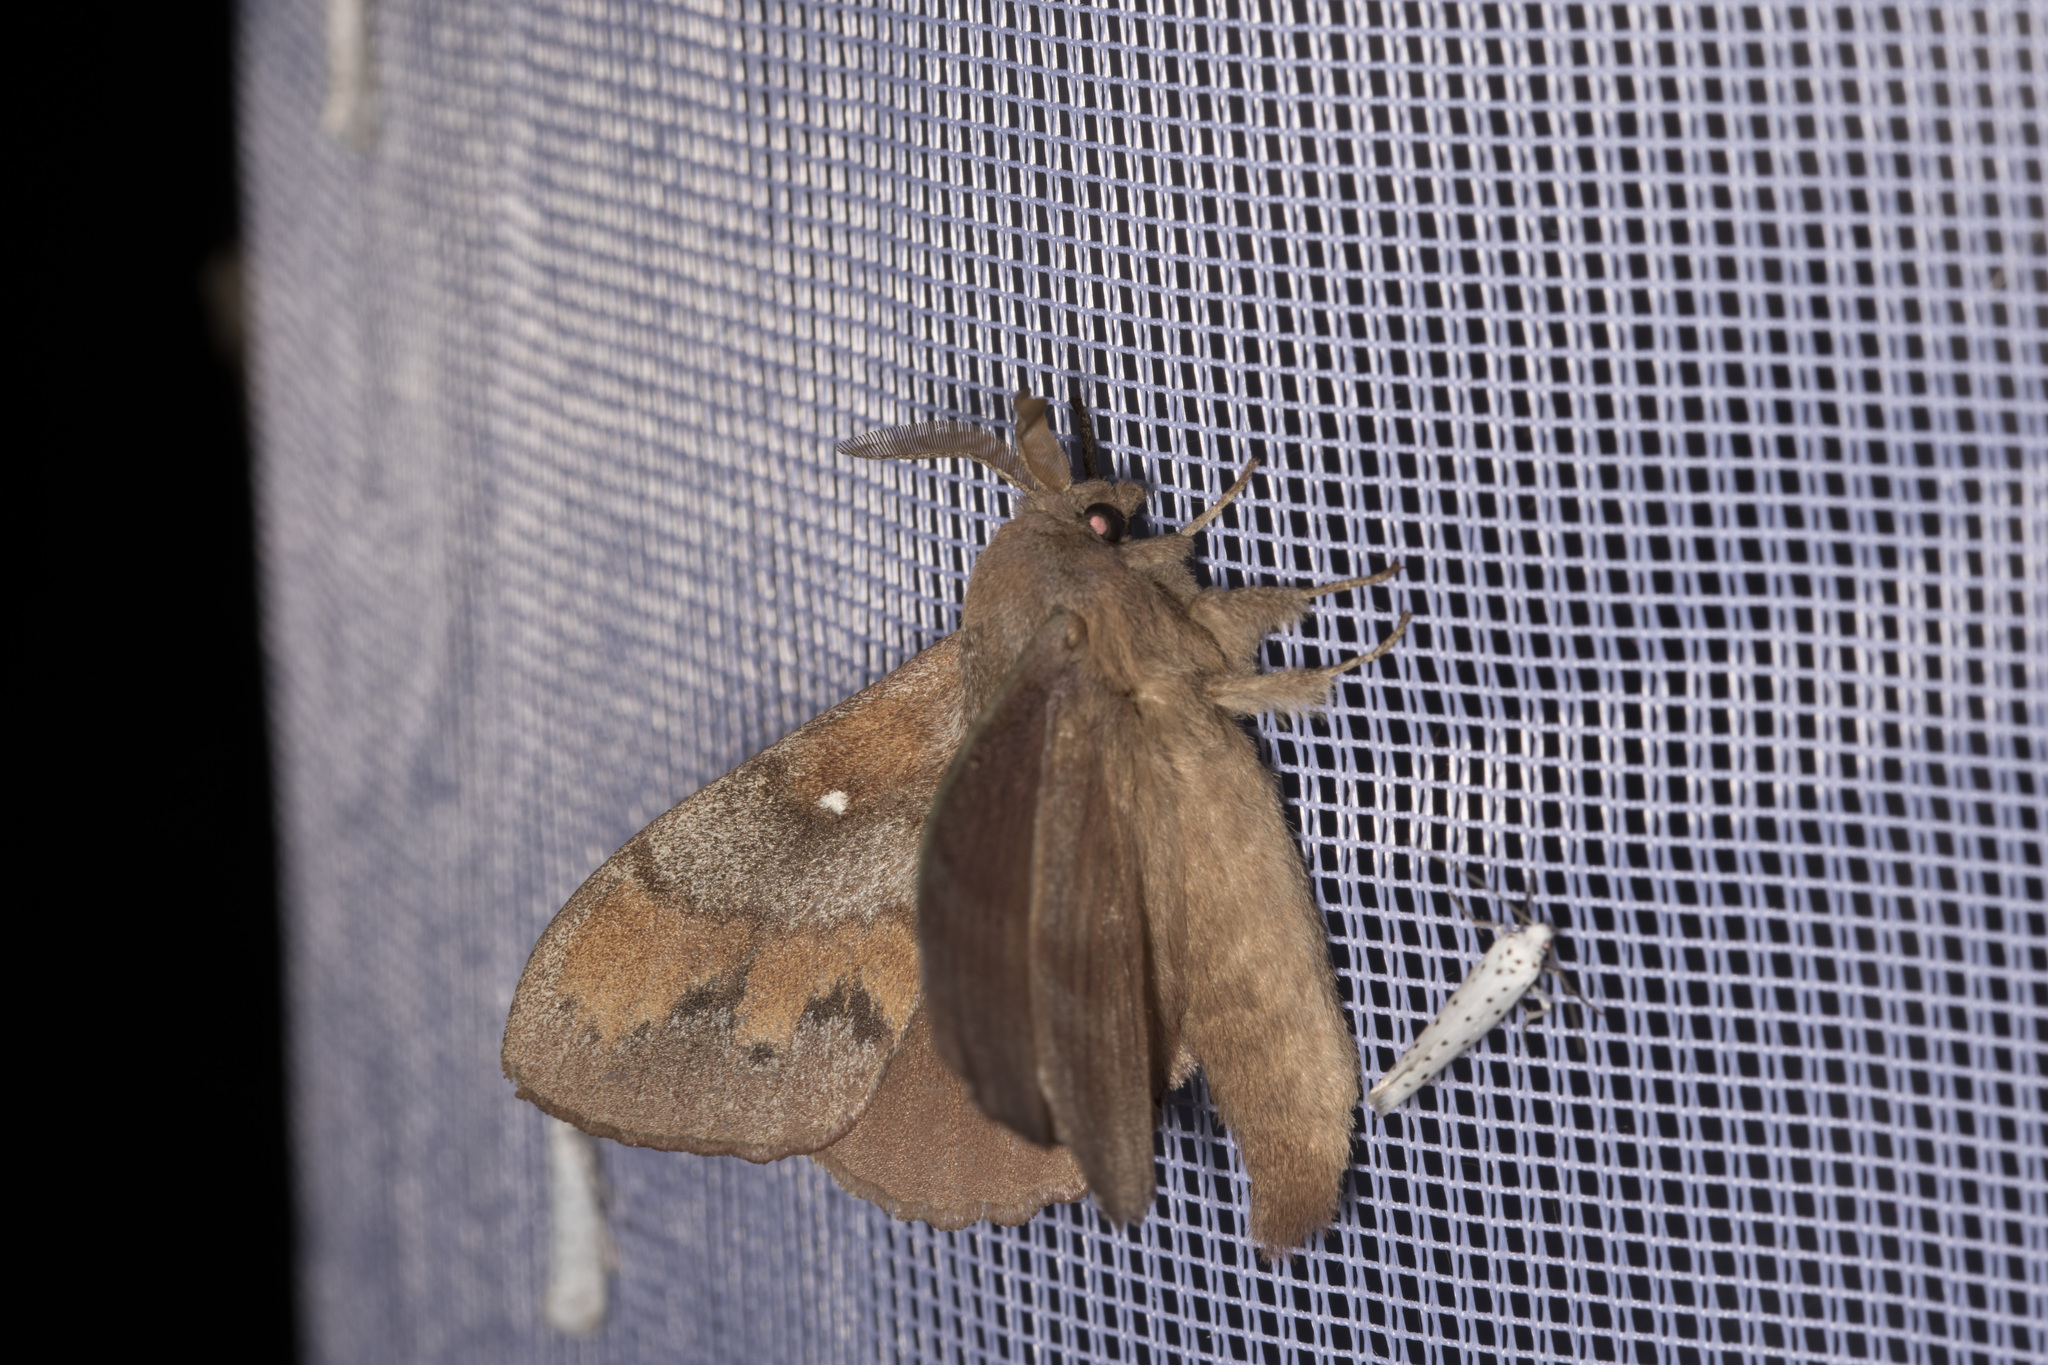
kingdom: Animalia
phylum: Arthropoda
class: Insecta
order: Lepidoptera
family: Lasiocampidae
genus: Dendrolimus
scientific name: Dendrolimus pini
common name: Pine-tree lappet
